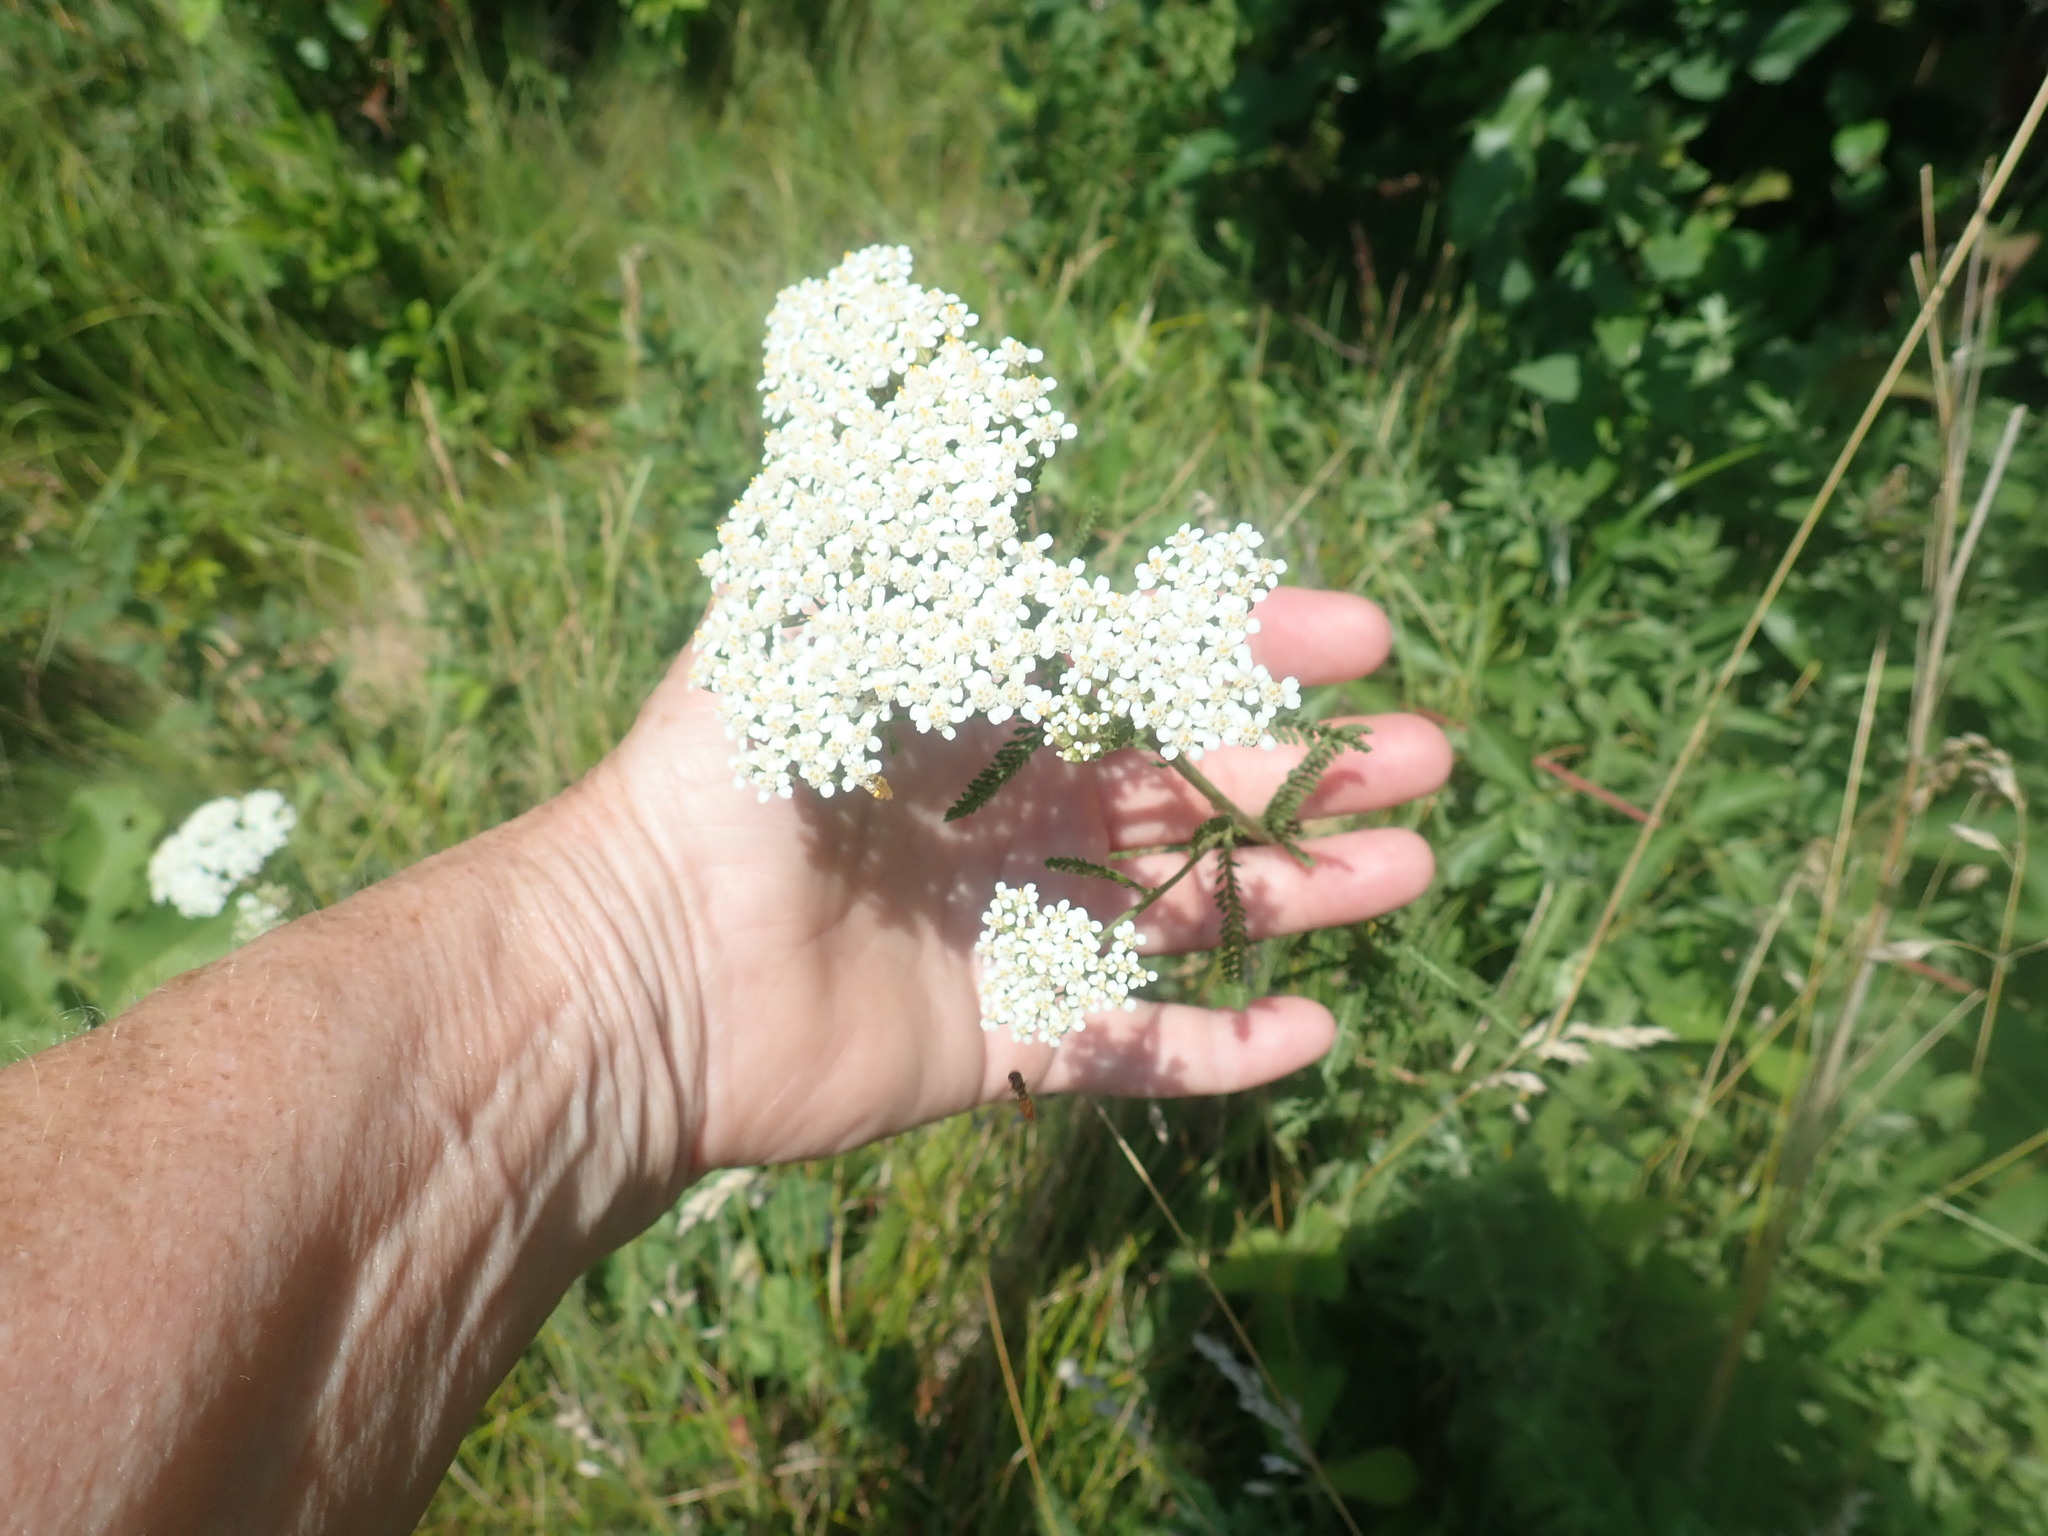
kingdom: Plantae
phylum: Tracheophyta
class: Magnoliopsida
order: Asterales
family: Asteraceae
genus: Achillea
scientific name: Achillea millefolium
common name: Yarrow
